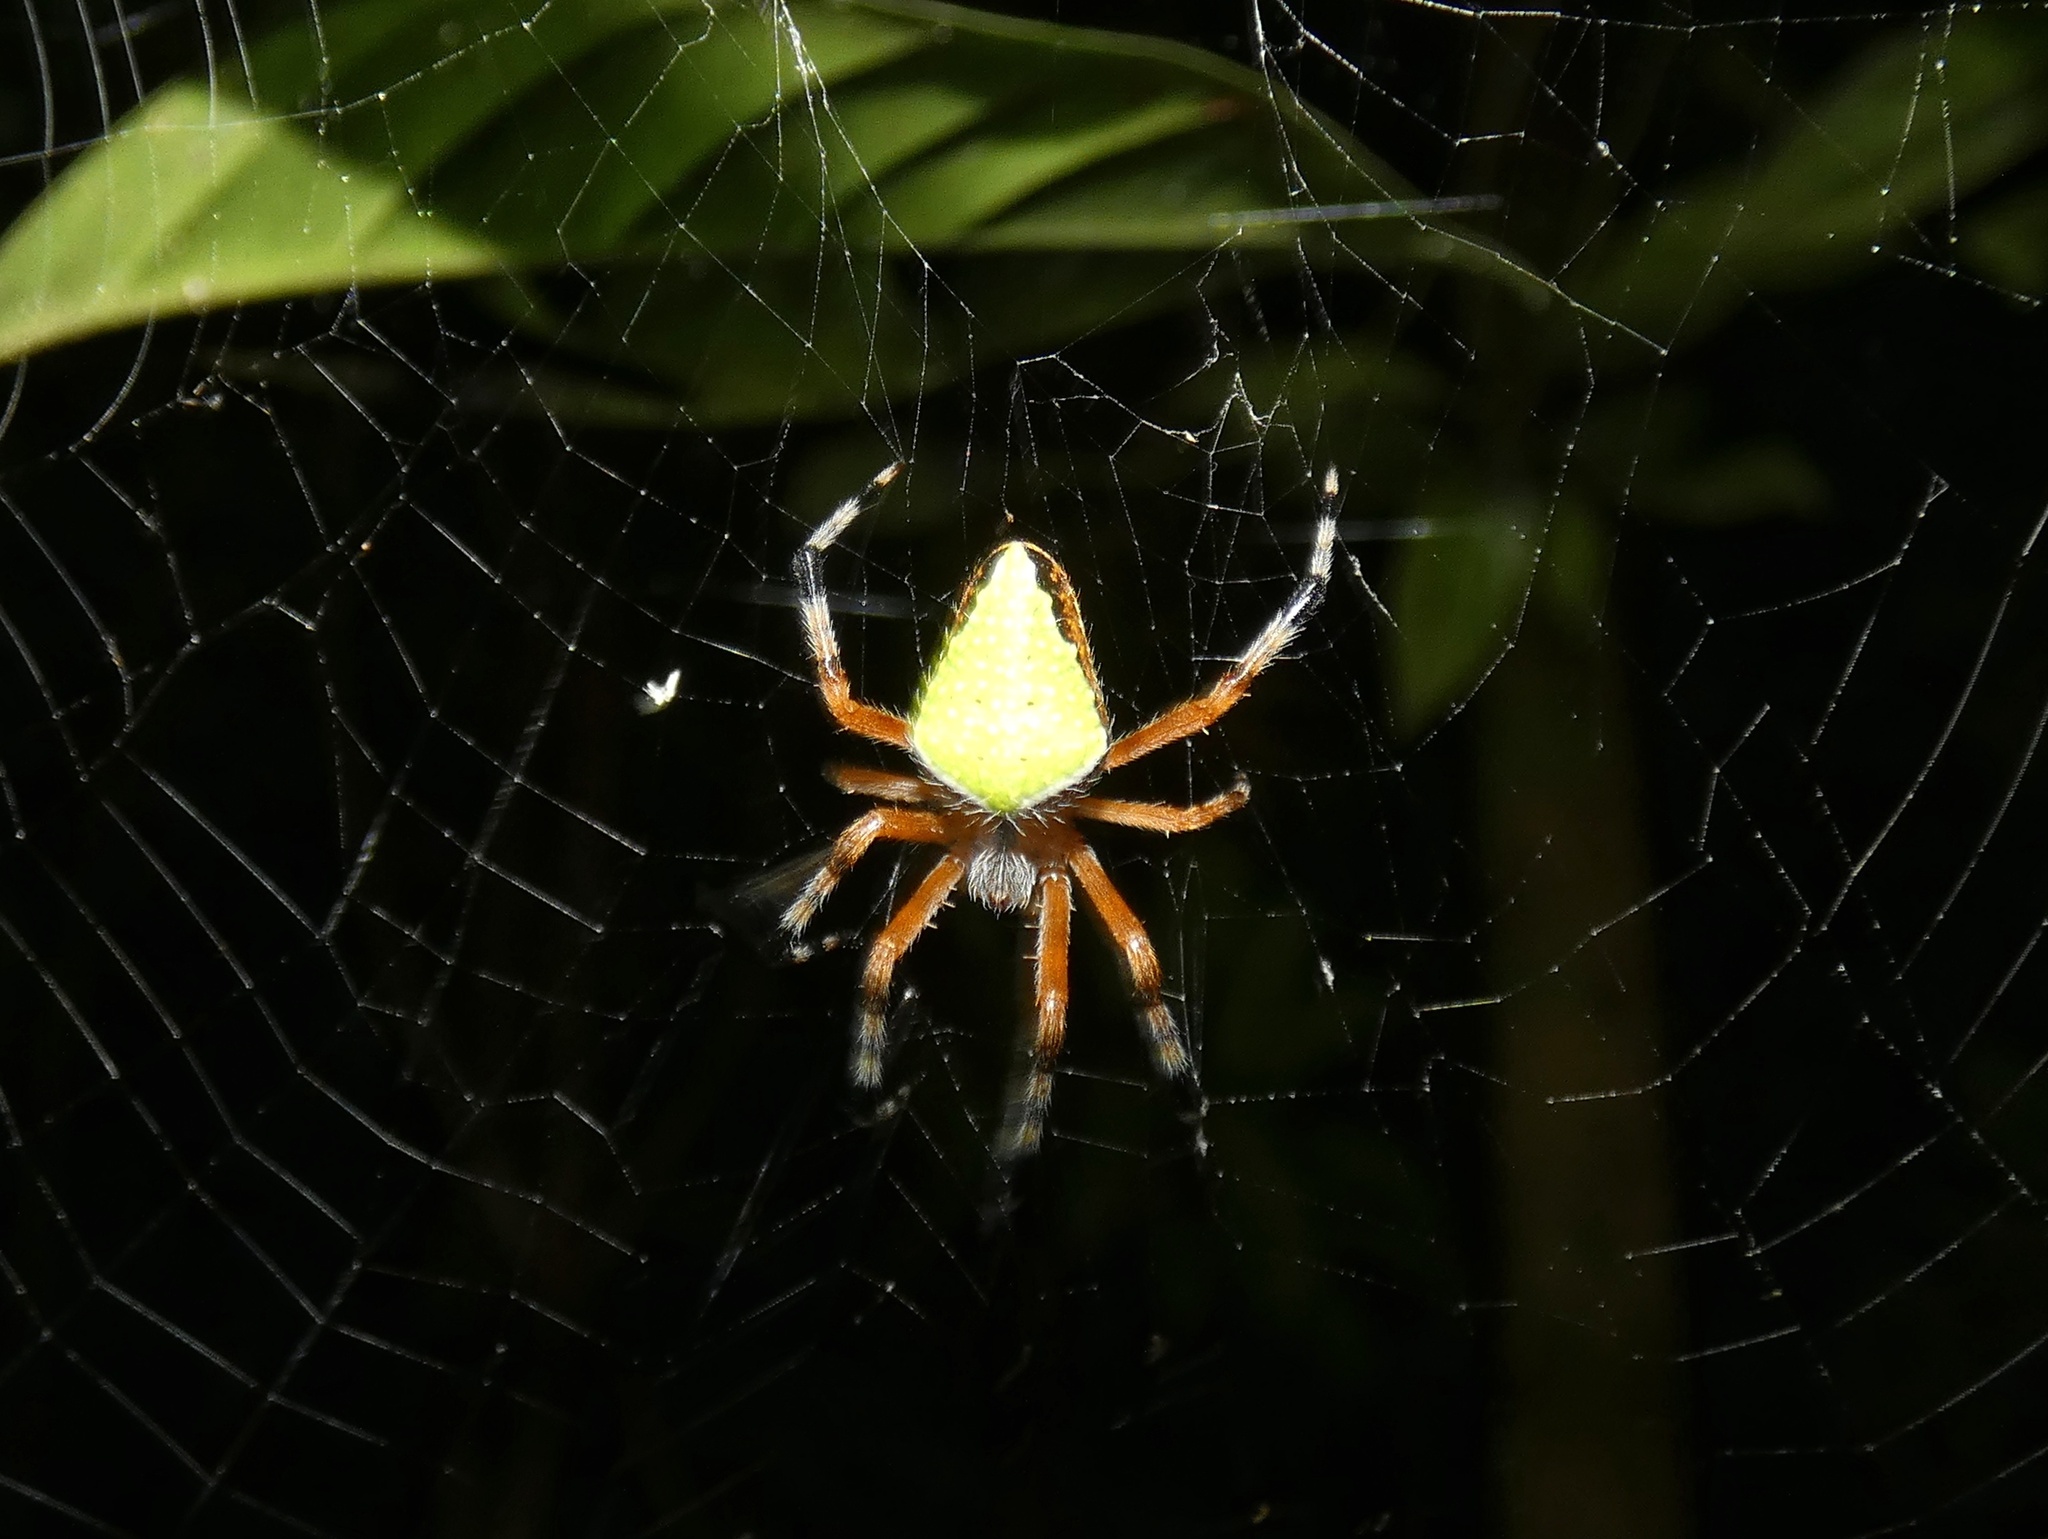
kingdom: Animalia
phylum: Arthropoda
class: Arachnida
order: Araneae
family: Araneidae
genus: Eriophora
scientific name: Eriophora nephiloides
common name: Orb weavers
